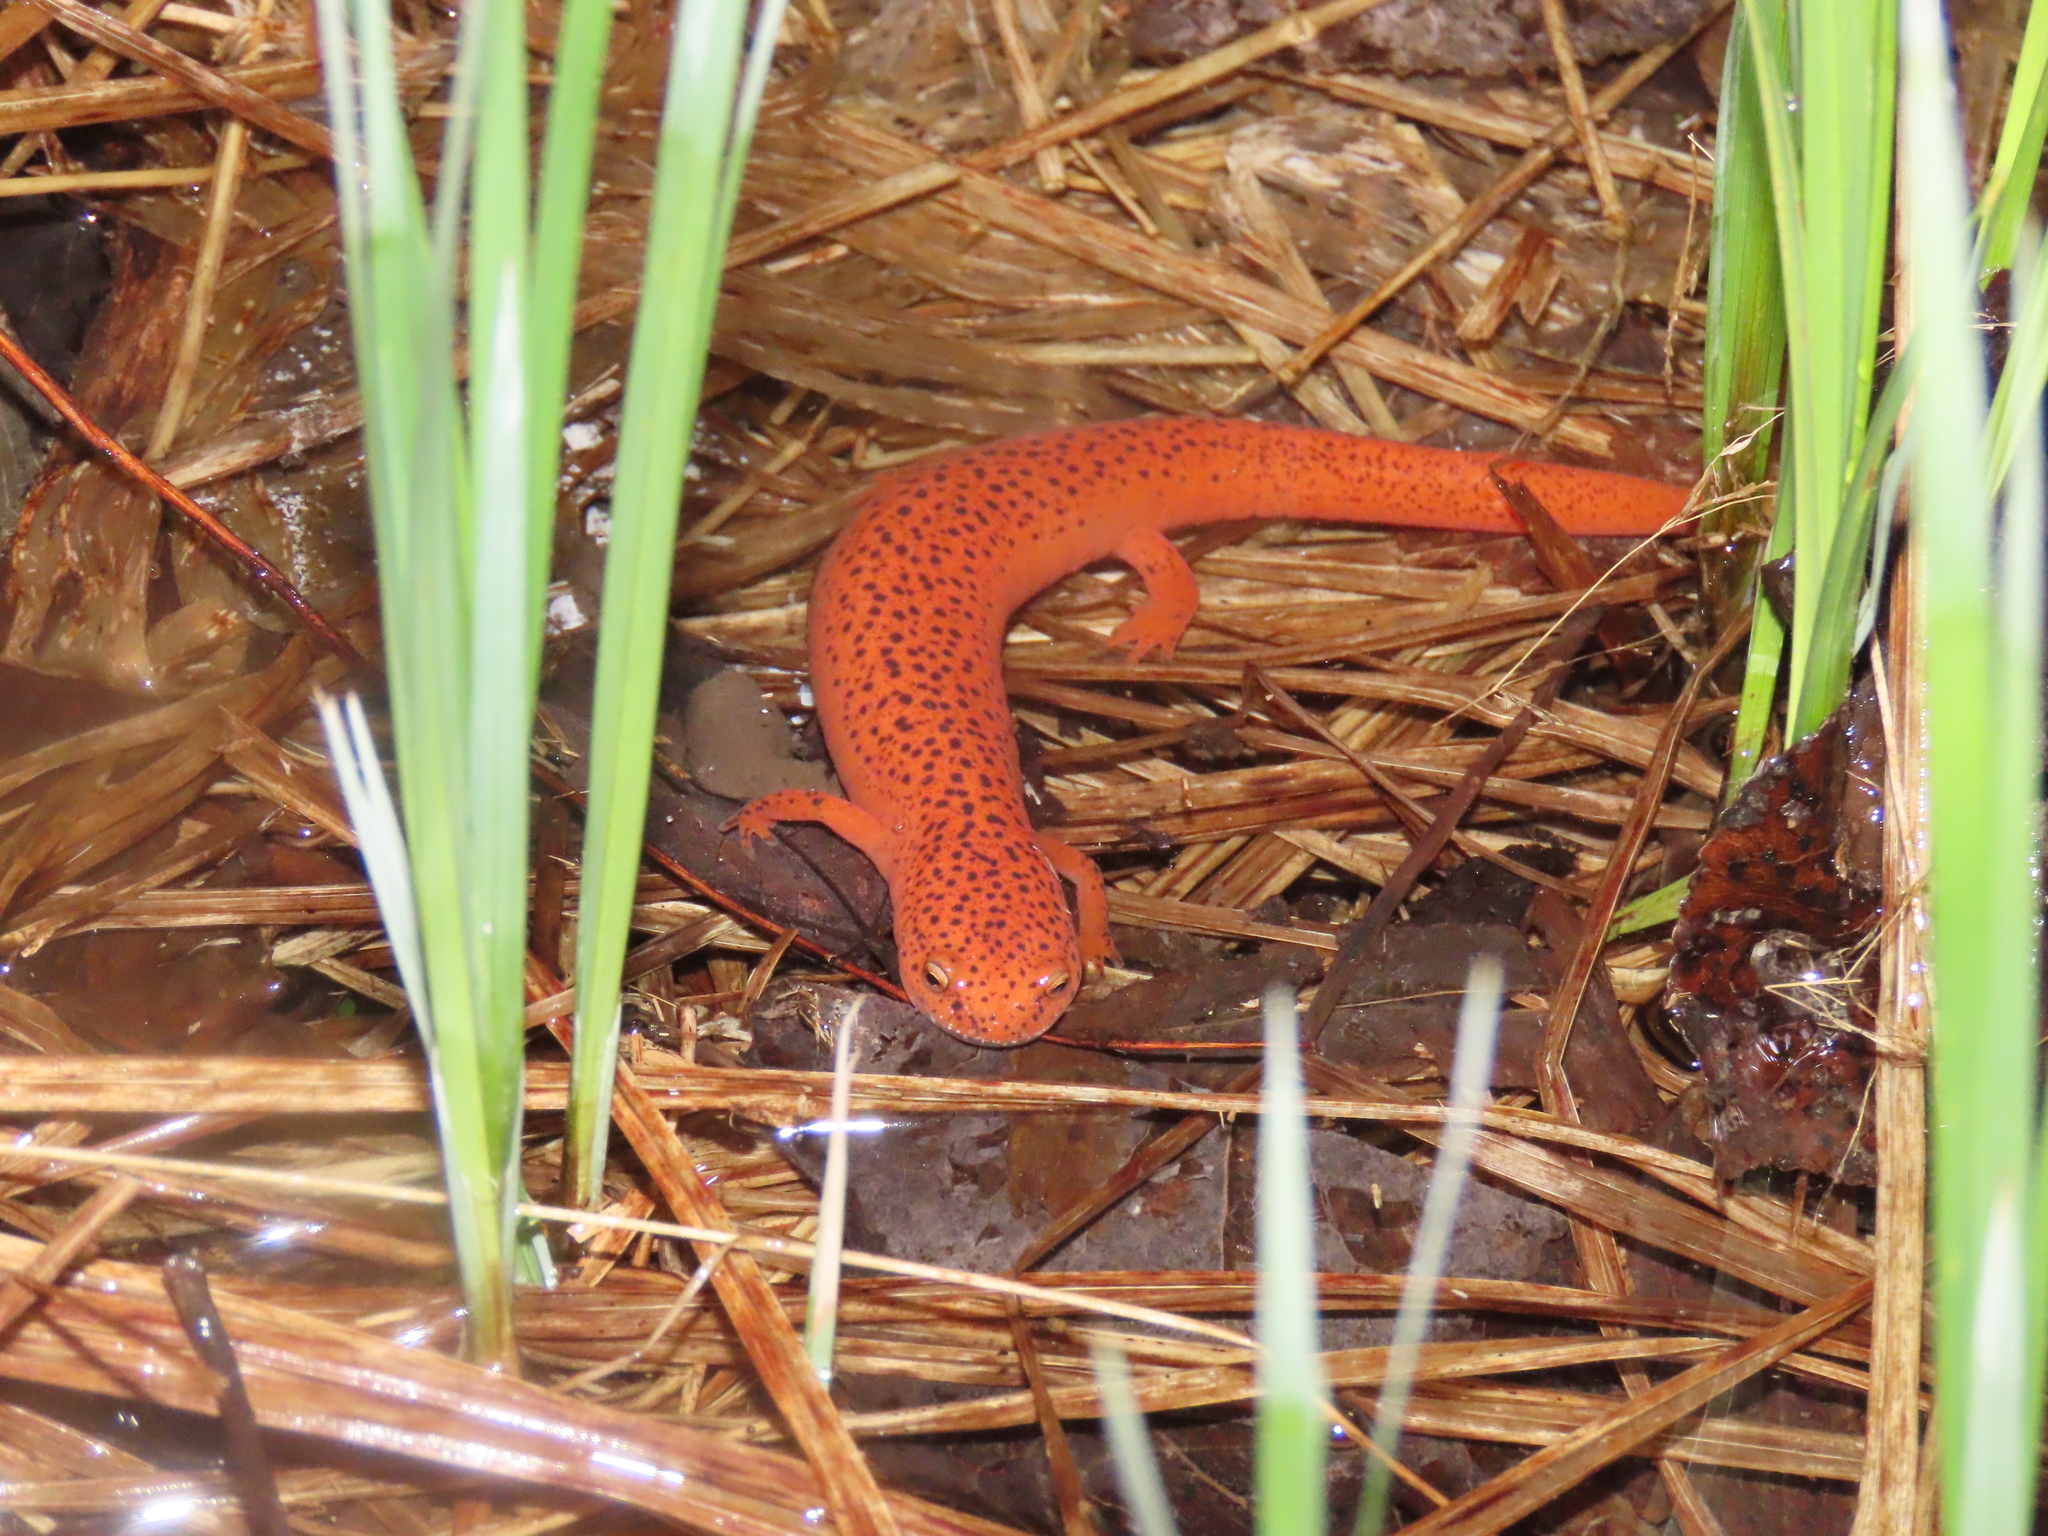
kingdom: Animalia
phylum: Chordata
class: Amphibia
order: Caudata
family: Plethodontidae
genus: Pseudotriton
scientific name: Pseudotriton ruber
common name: Red salamander
